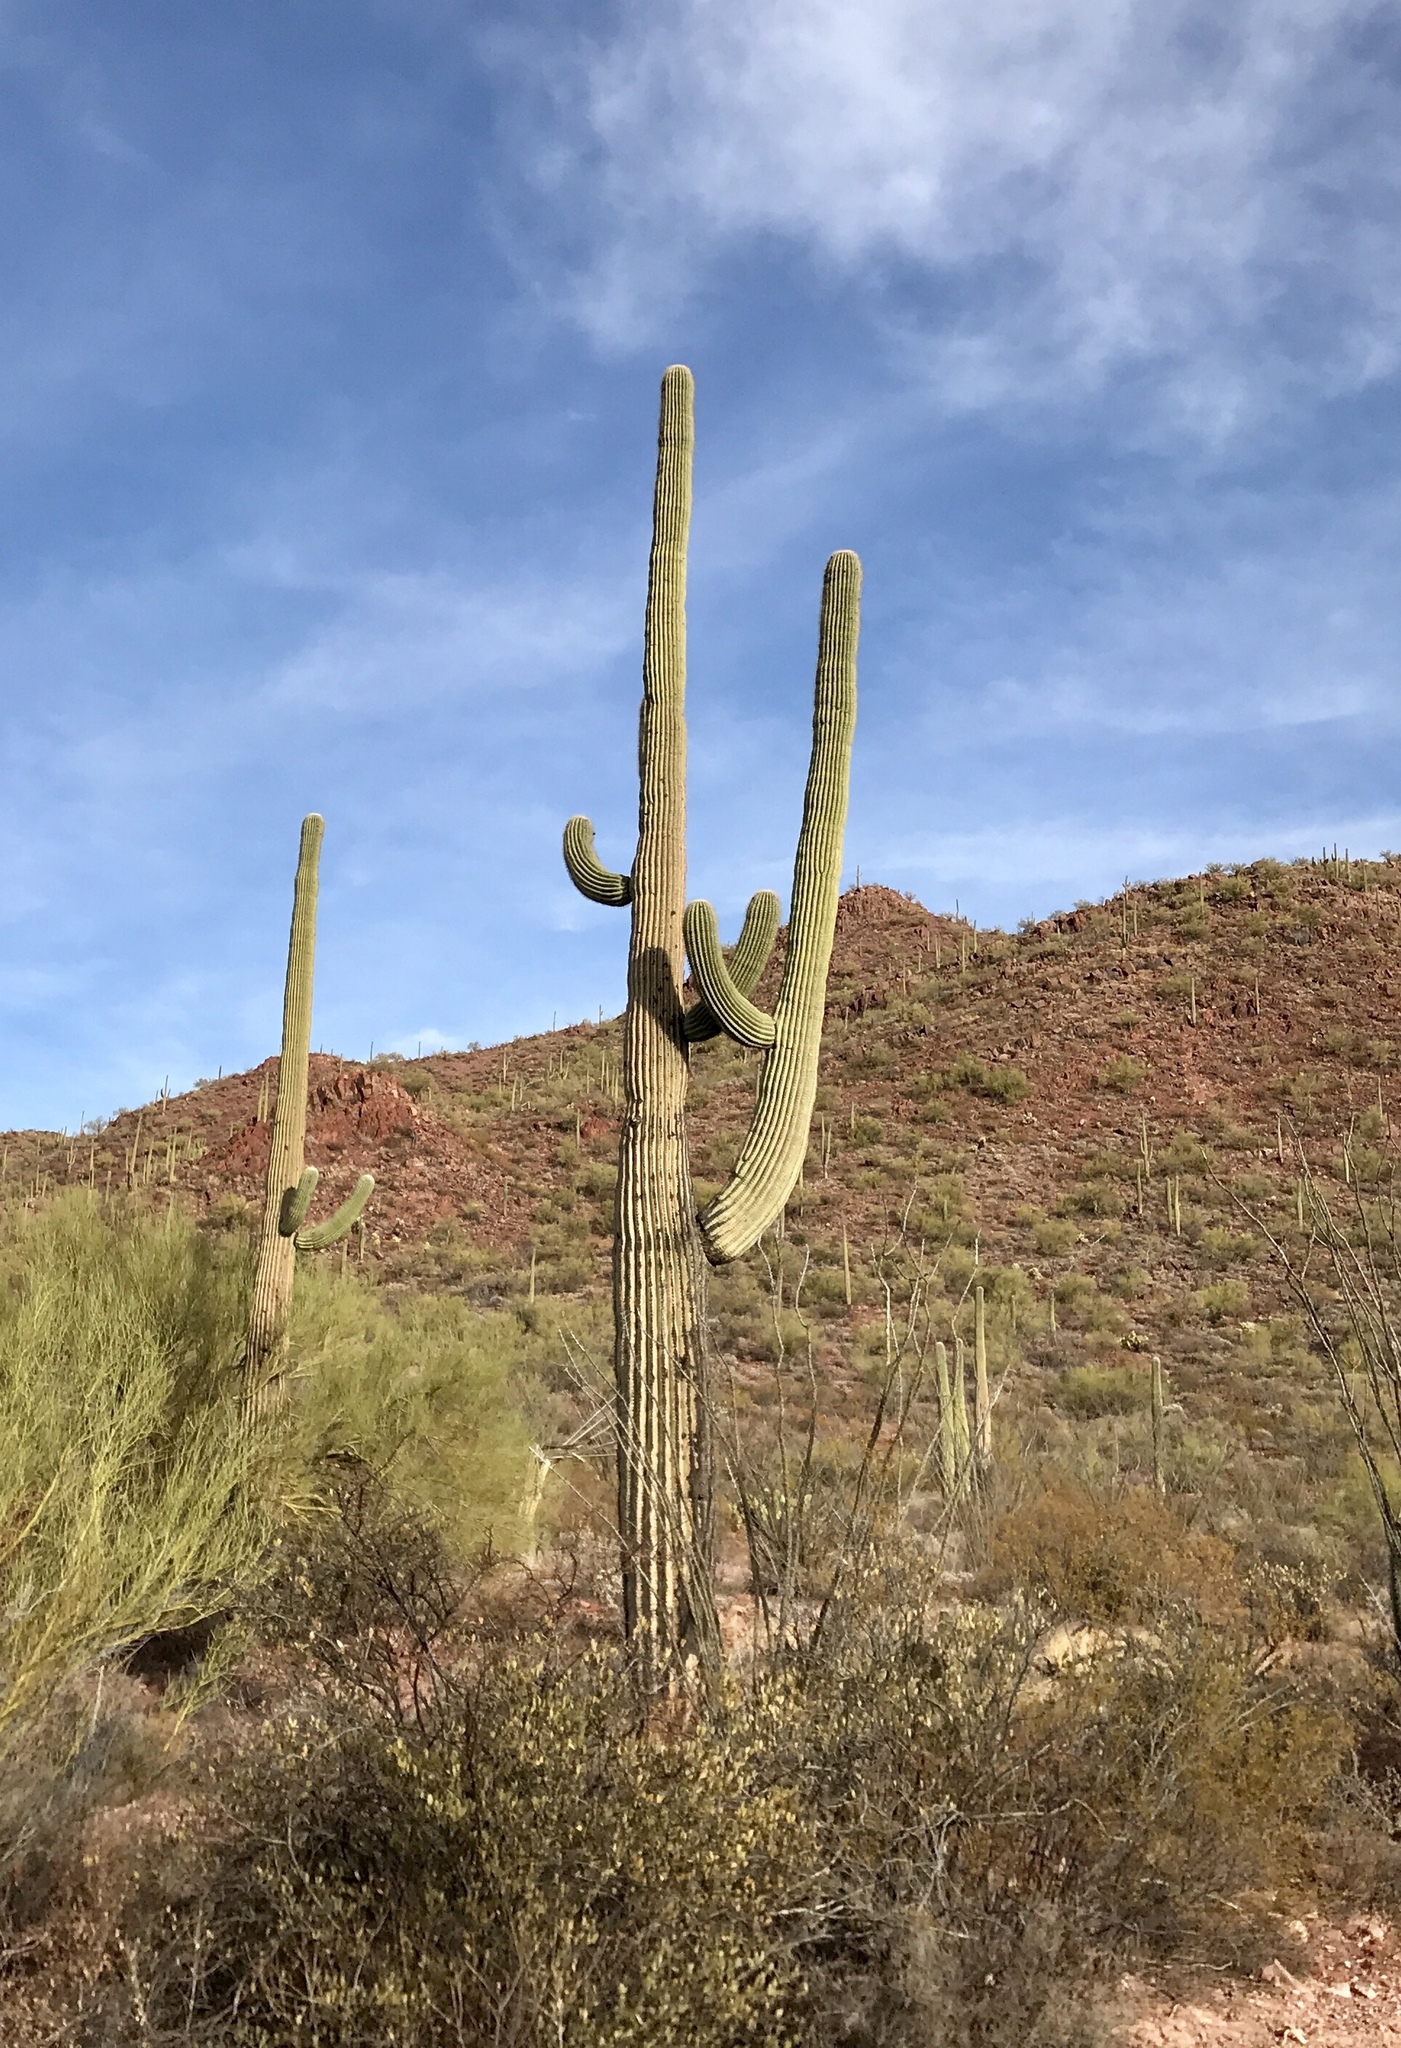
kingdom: Plantae
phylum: Tracheophyta
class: Magnoliopsida
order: Caryophyllales
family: Cactaceae
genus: Carnegiea
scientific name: Carnegiea gigantea
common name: Saguaro
